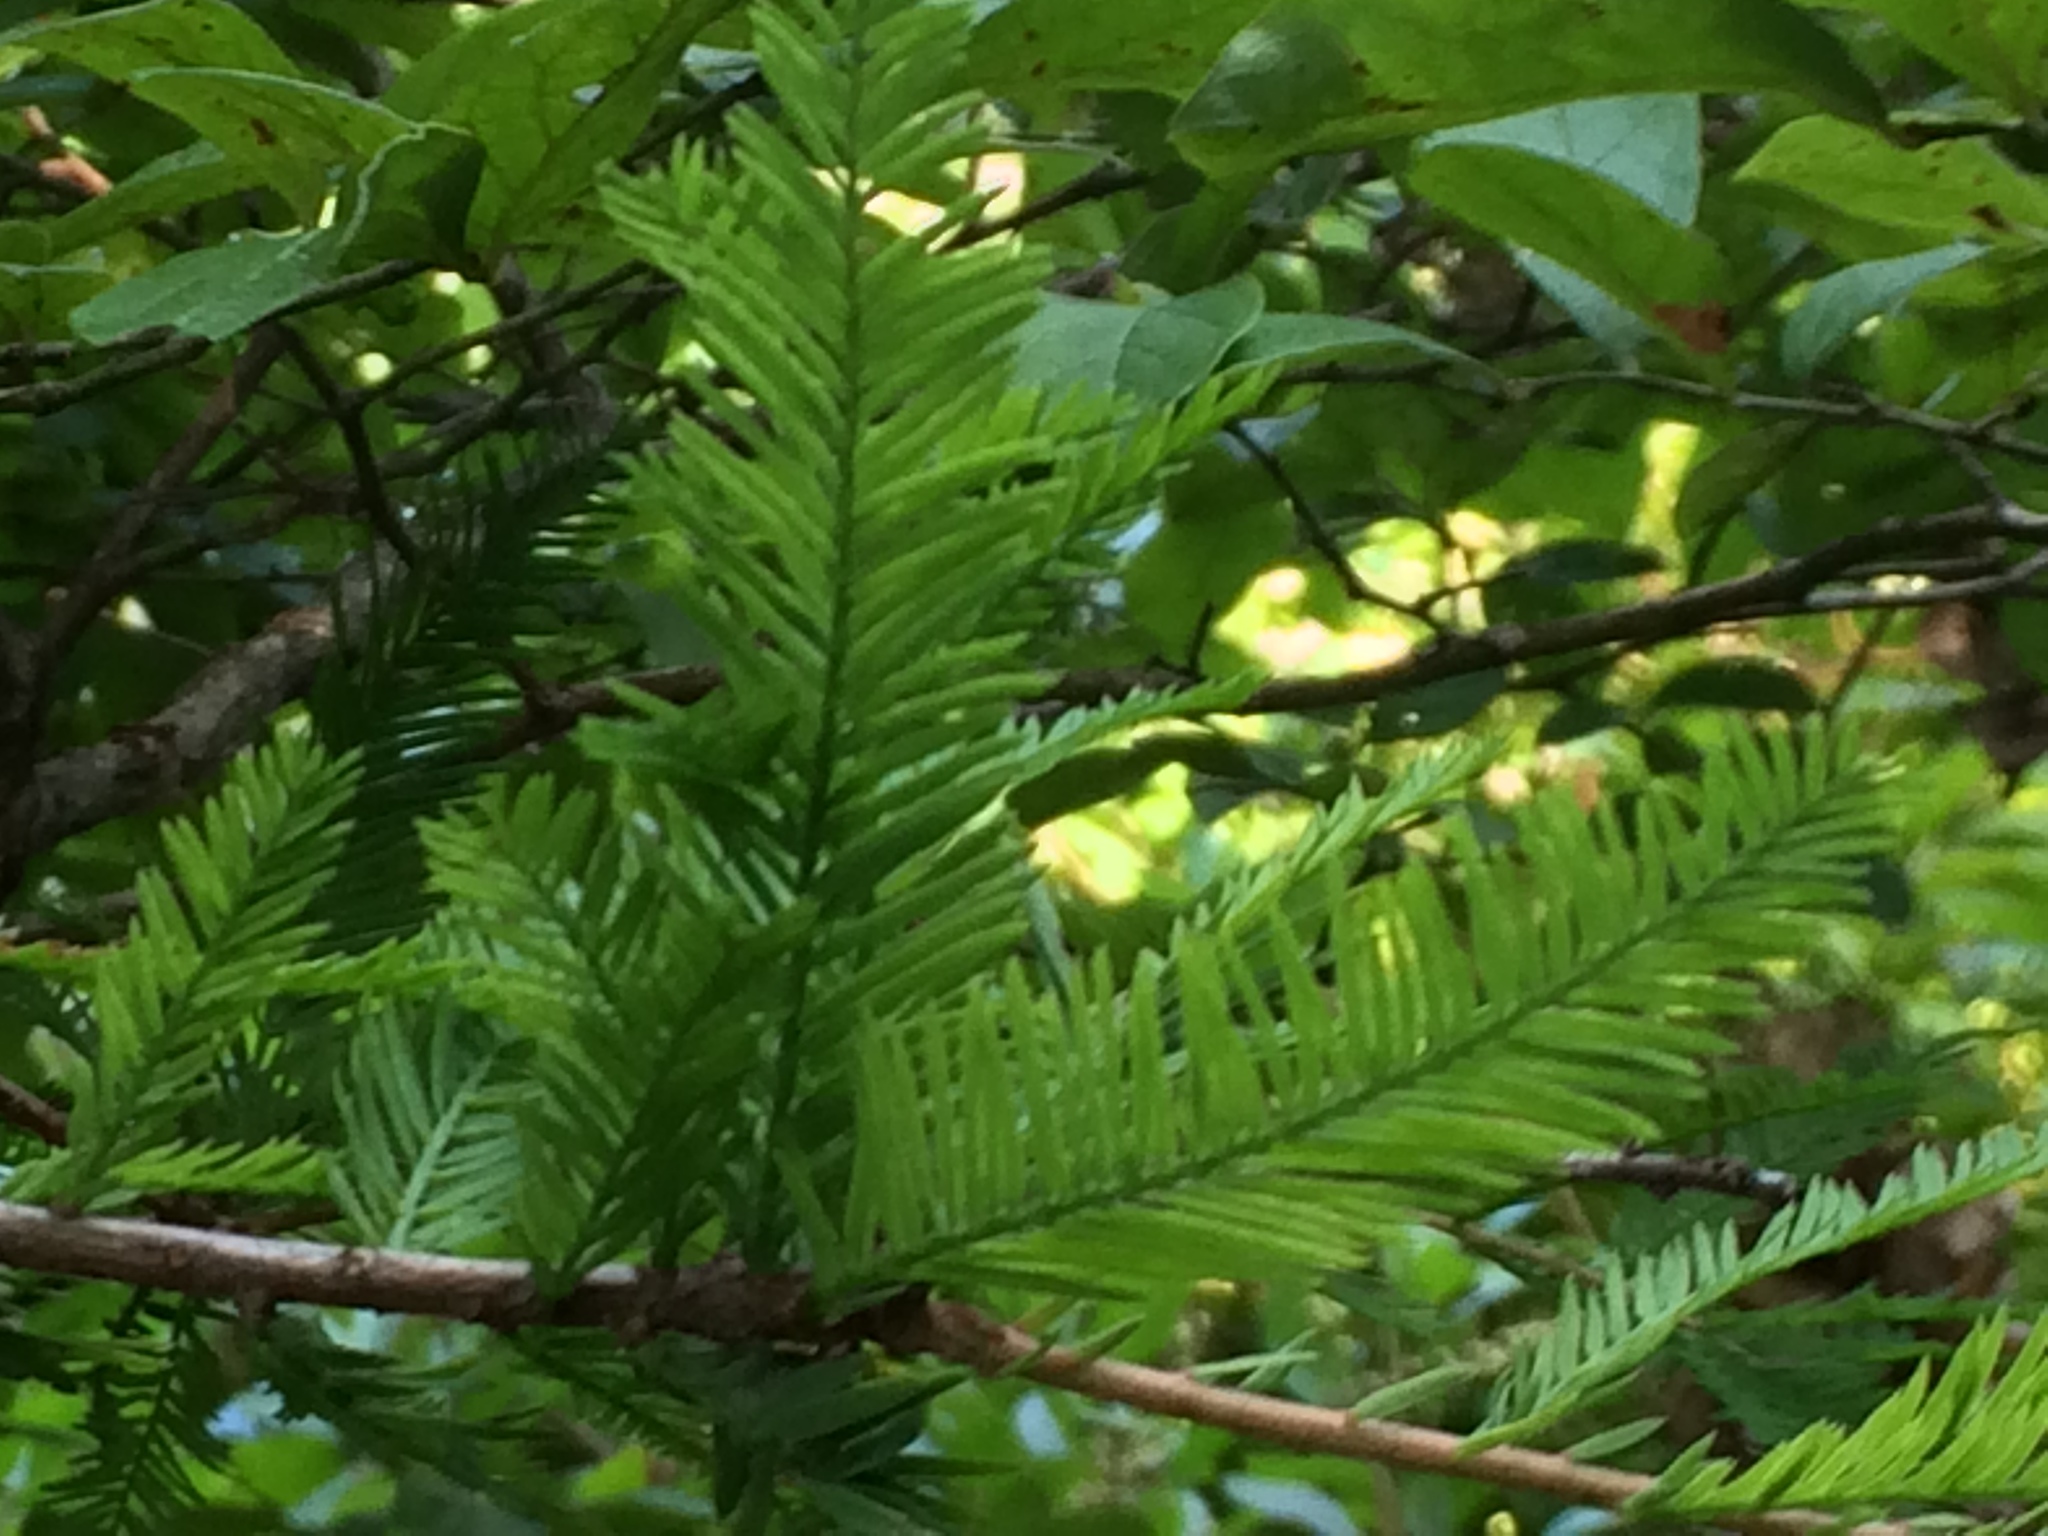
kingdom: Plantae
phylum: Tracheophyta
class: Pinopsida
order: Pinales
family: Cupressaceae
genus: Taxodium
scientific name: Taxodium distichum
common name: Bald cypress
